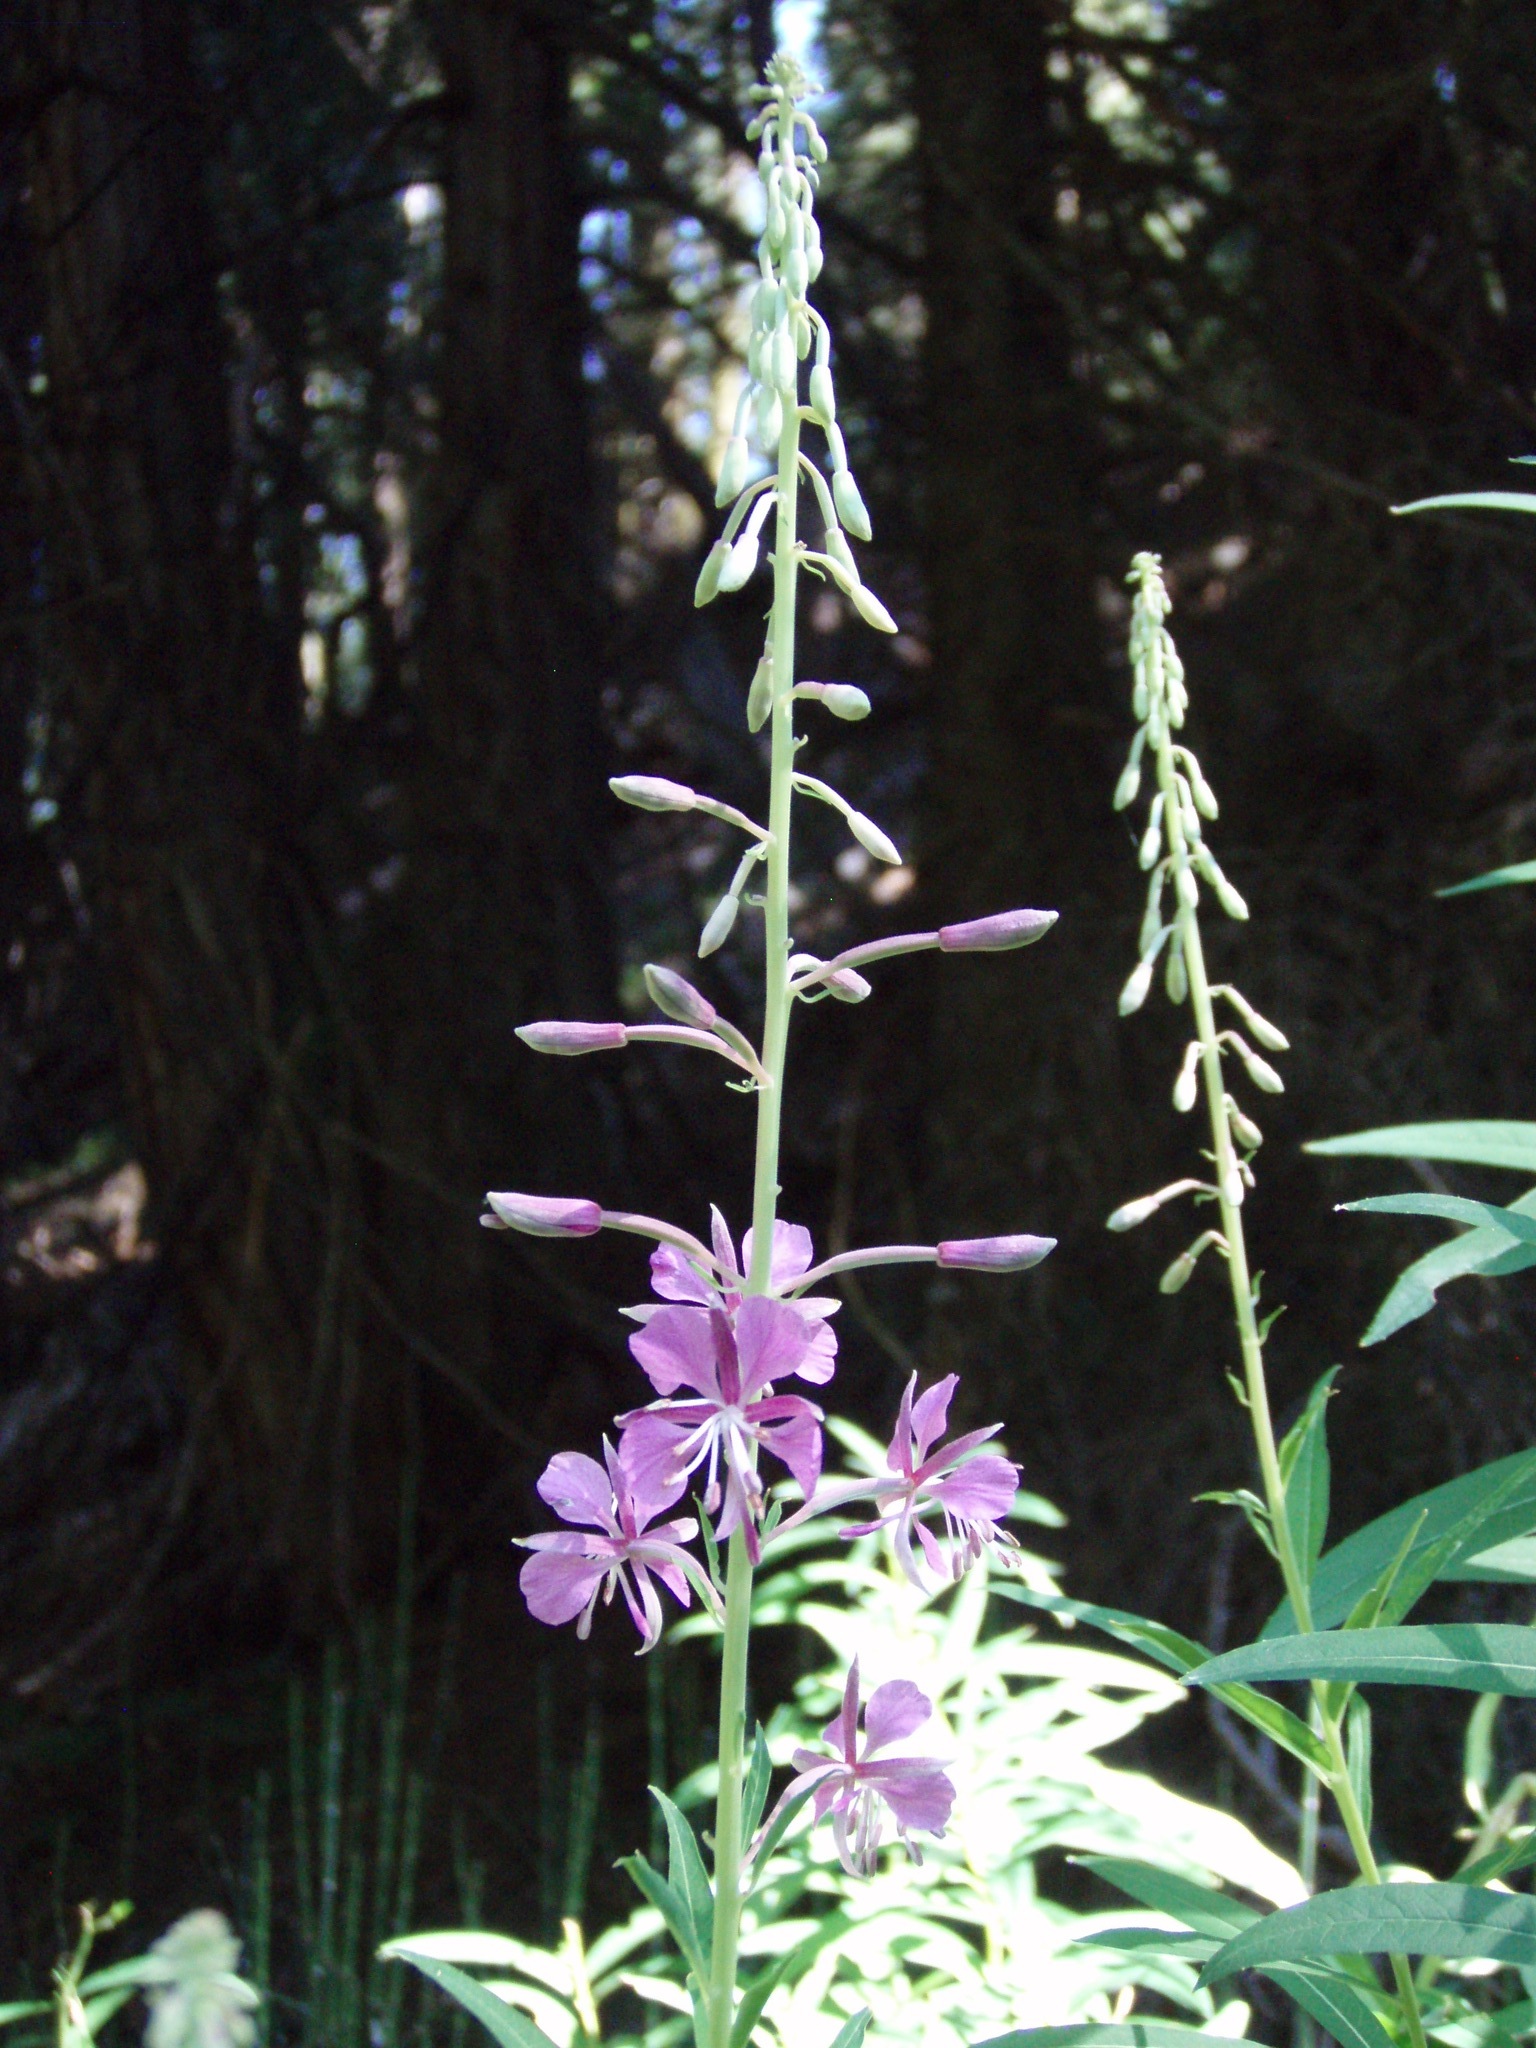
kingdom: Plantae
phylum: Tracheophyta
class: Magnoliopsida
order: Myrtales
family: Onagraceae
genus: Chamaenerion
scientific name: Chamaenerion angustifolium
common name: Fireweed
